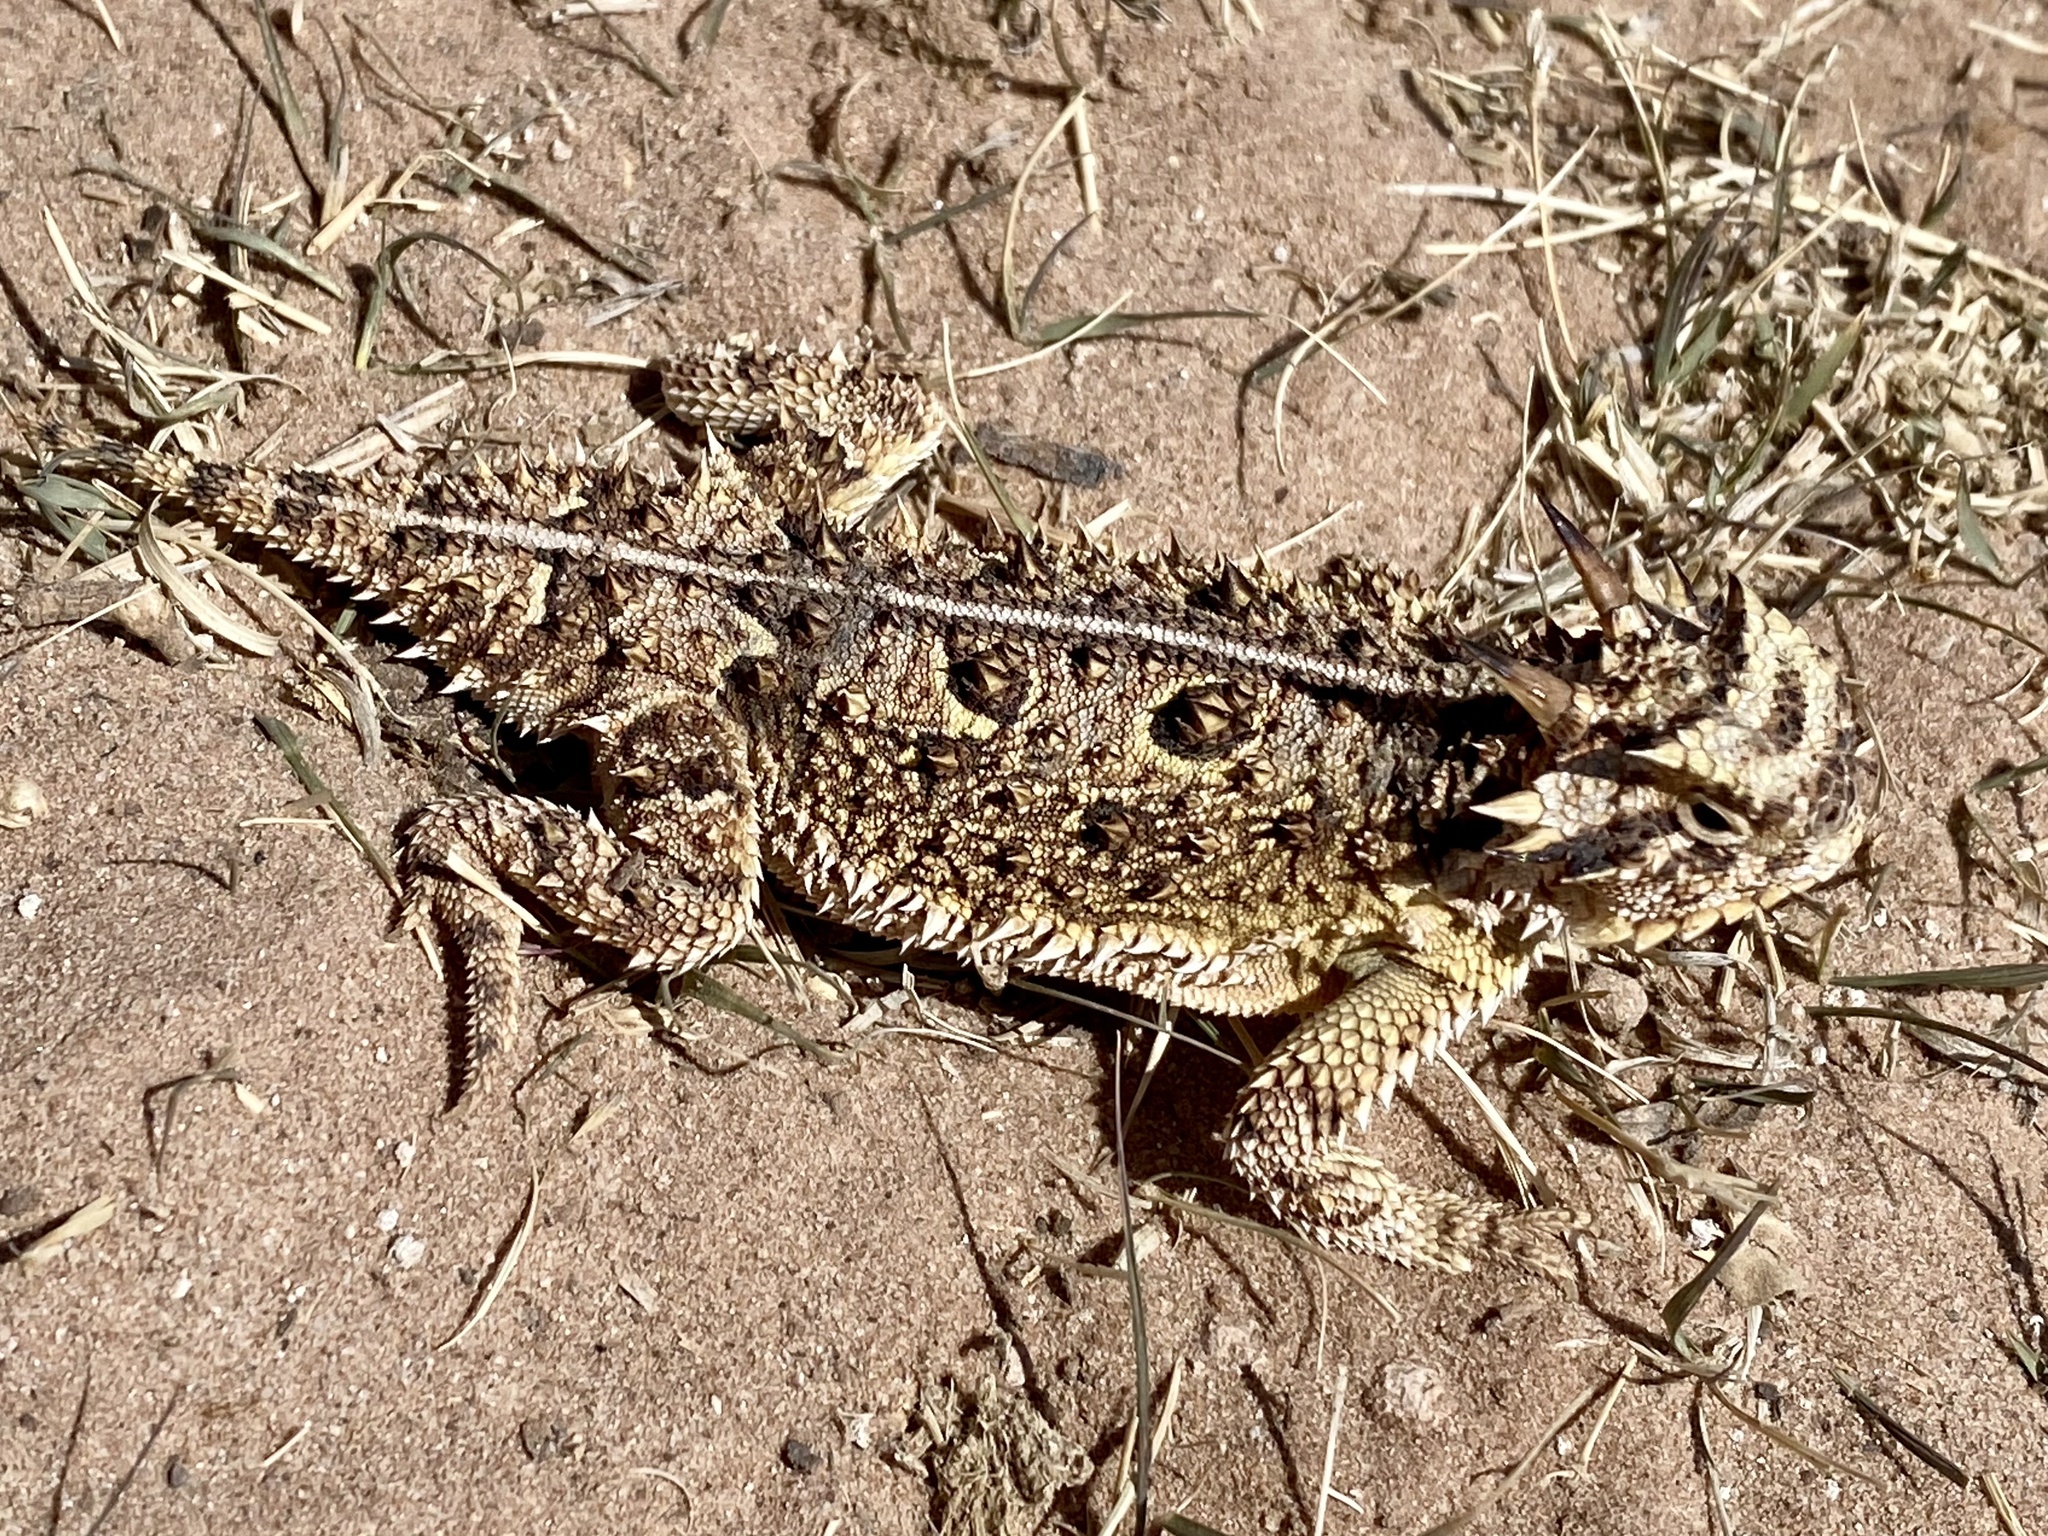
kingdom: Animalia
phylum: Chordata
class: Squamata
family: Phrynosomatidae
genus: Phrynosoma
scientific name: Phrynosoma cornutum
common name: Texas horned lizard
